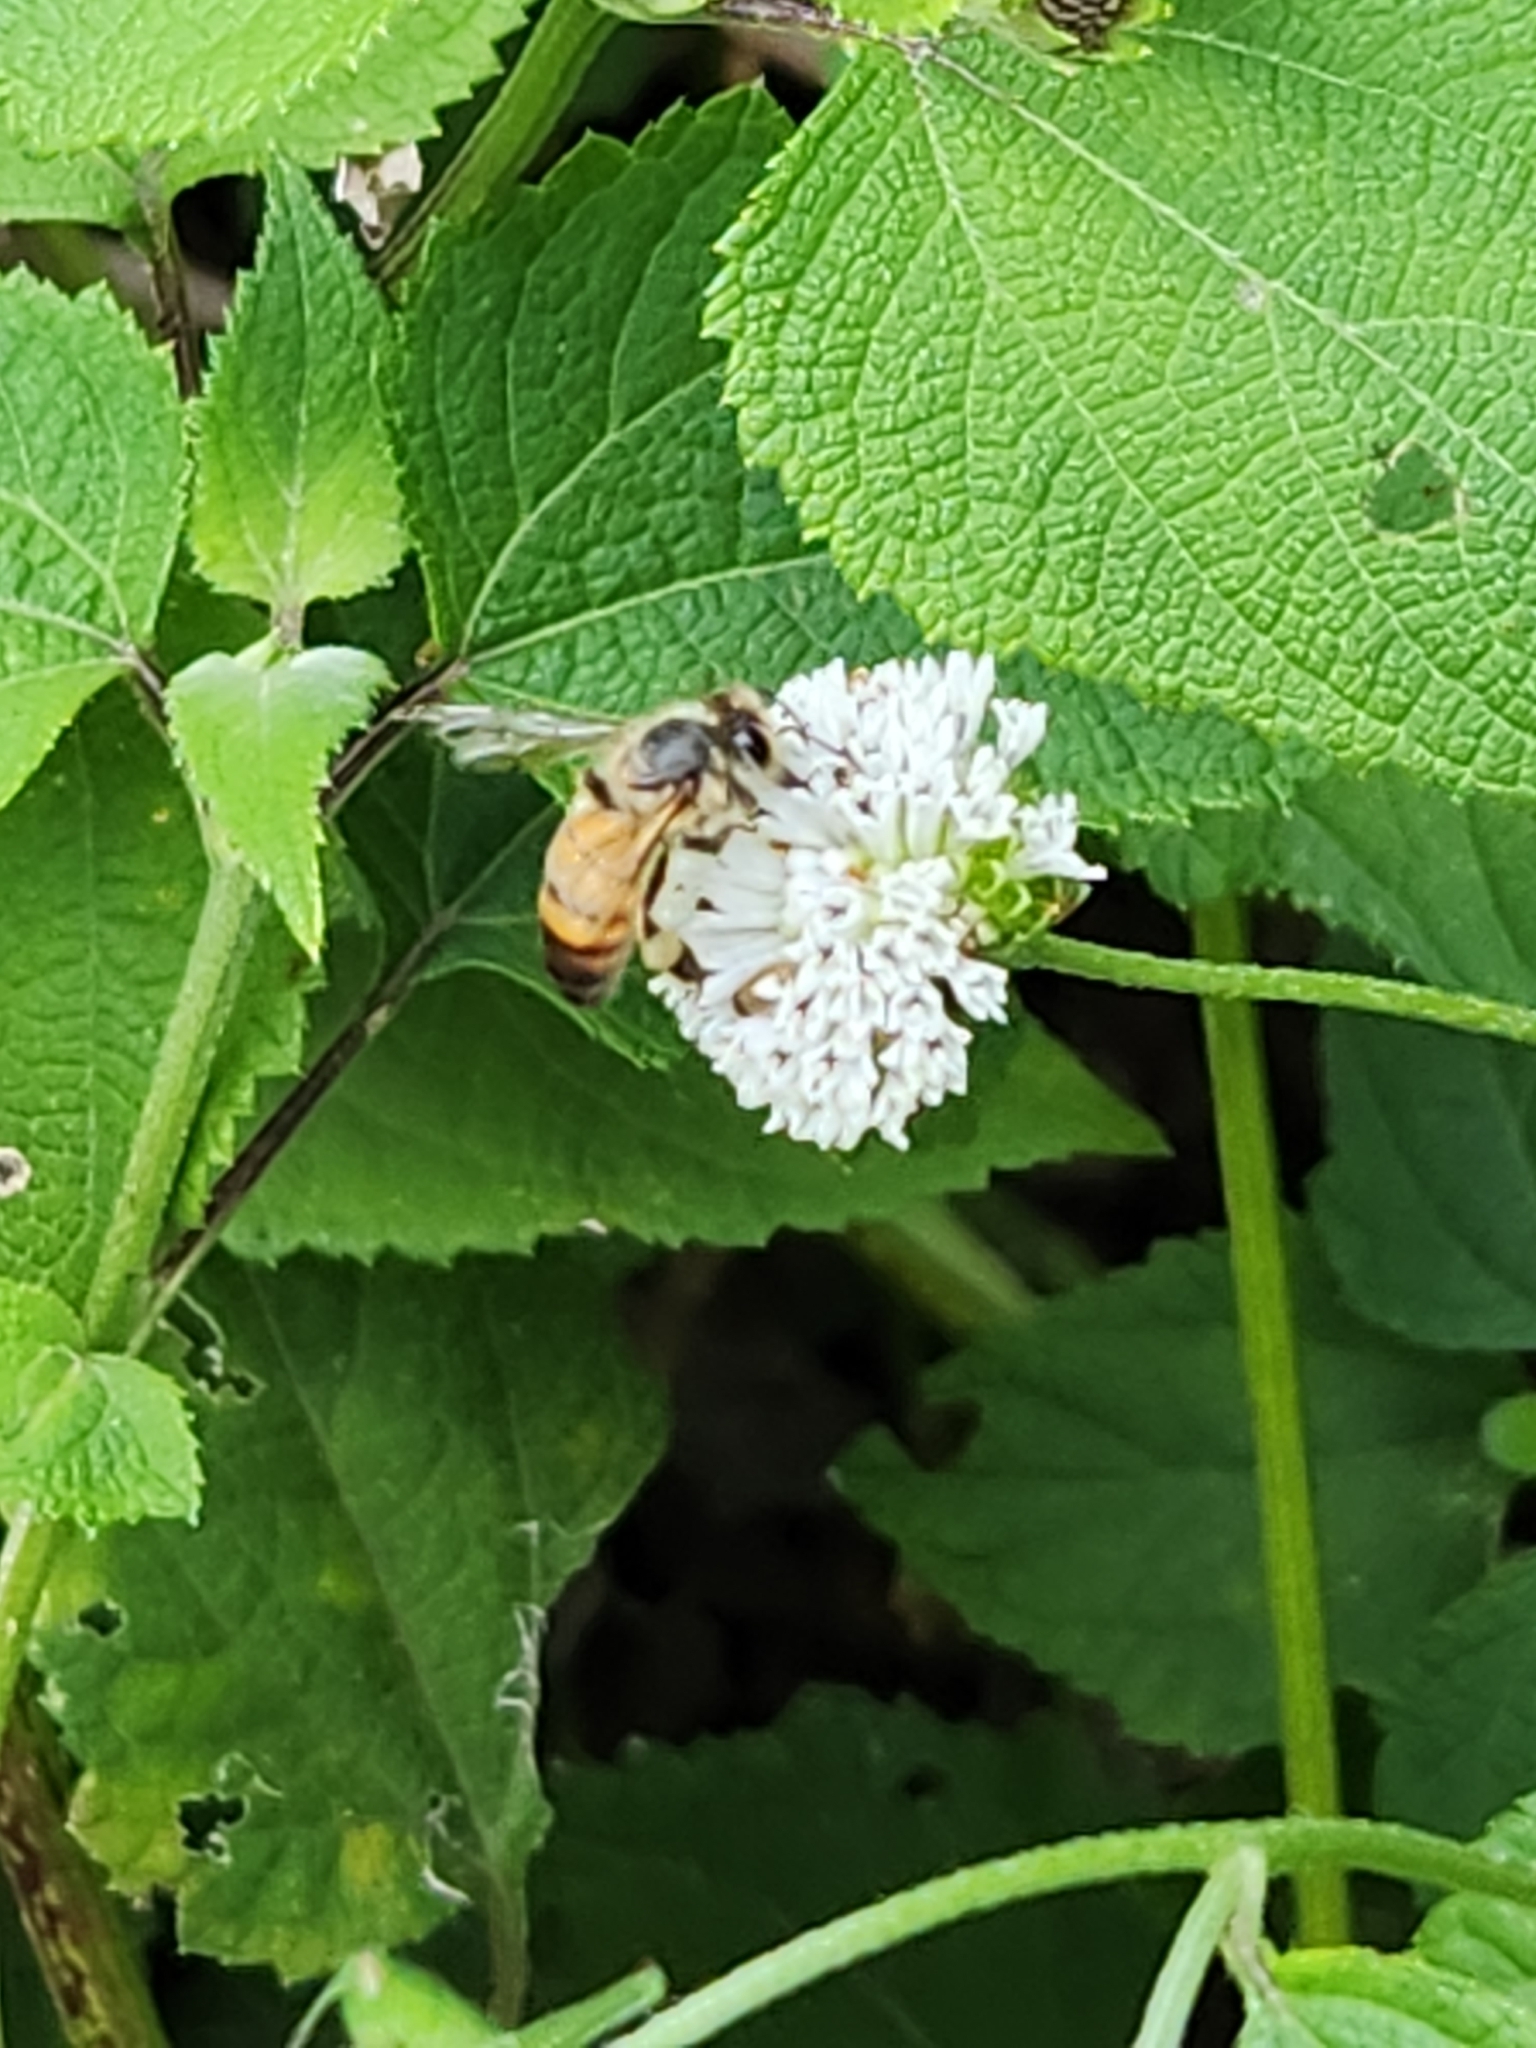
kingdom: Animalia
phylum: Arthropoda
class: Insecta
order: Hymenoptera
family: Apidae
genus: Apis
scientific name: Apis mellifera
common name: Honey bee
